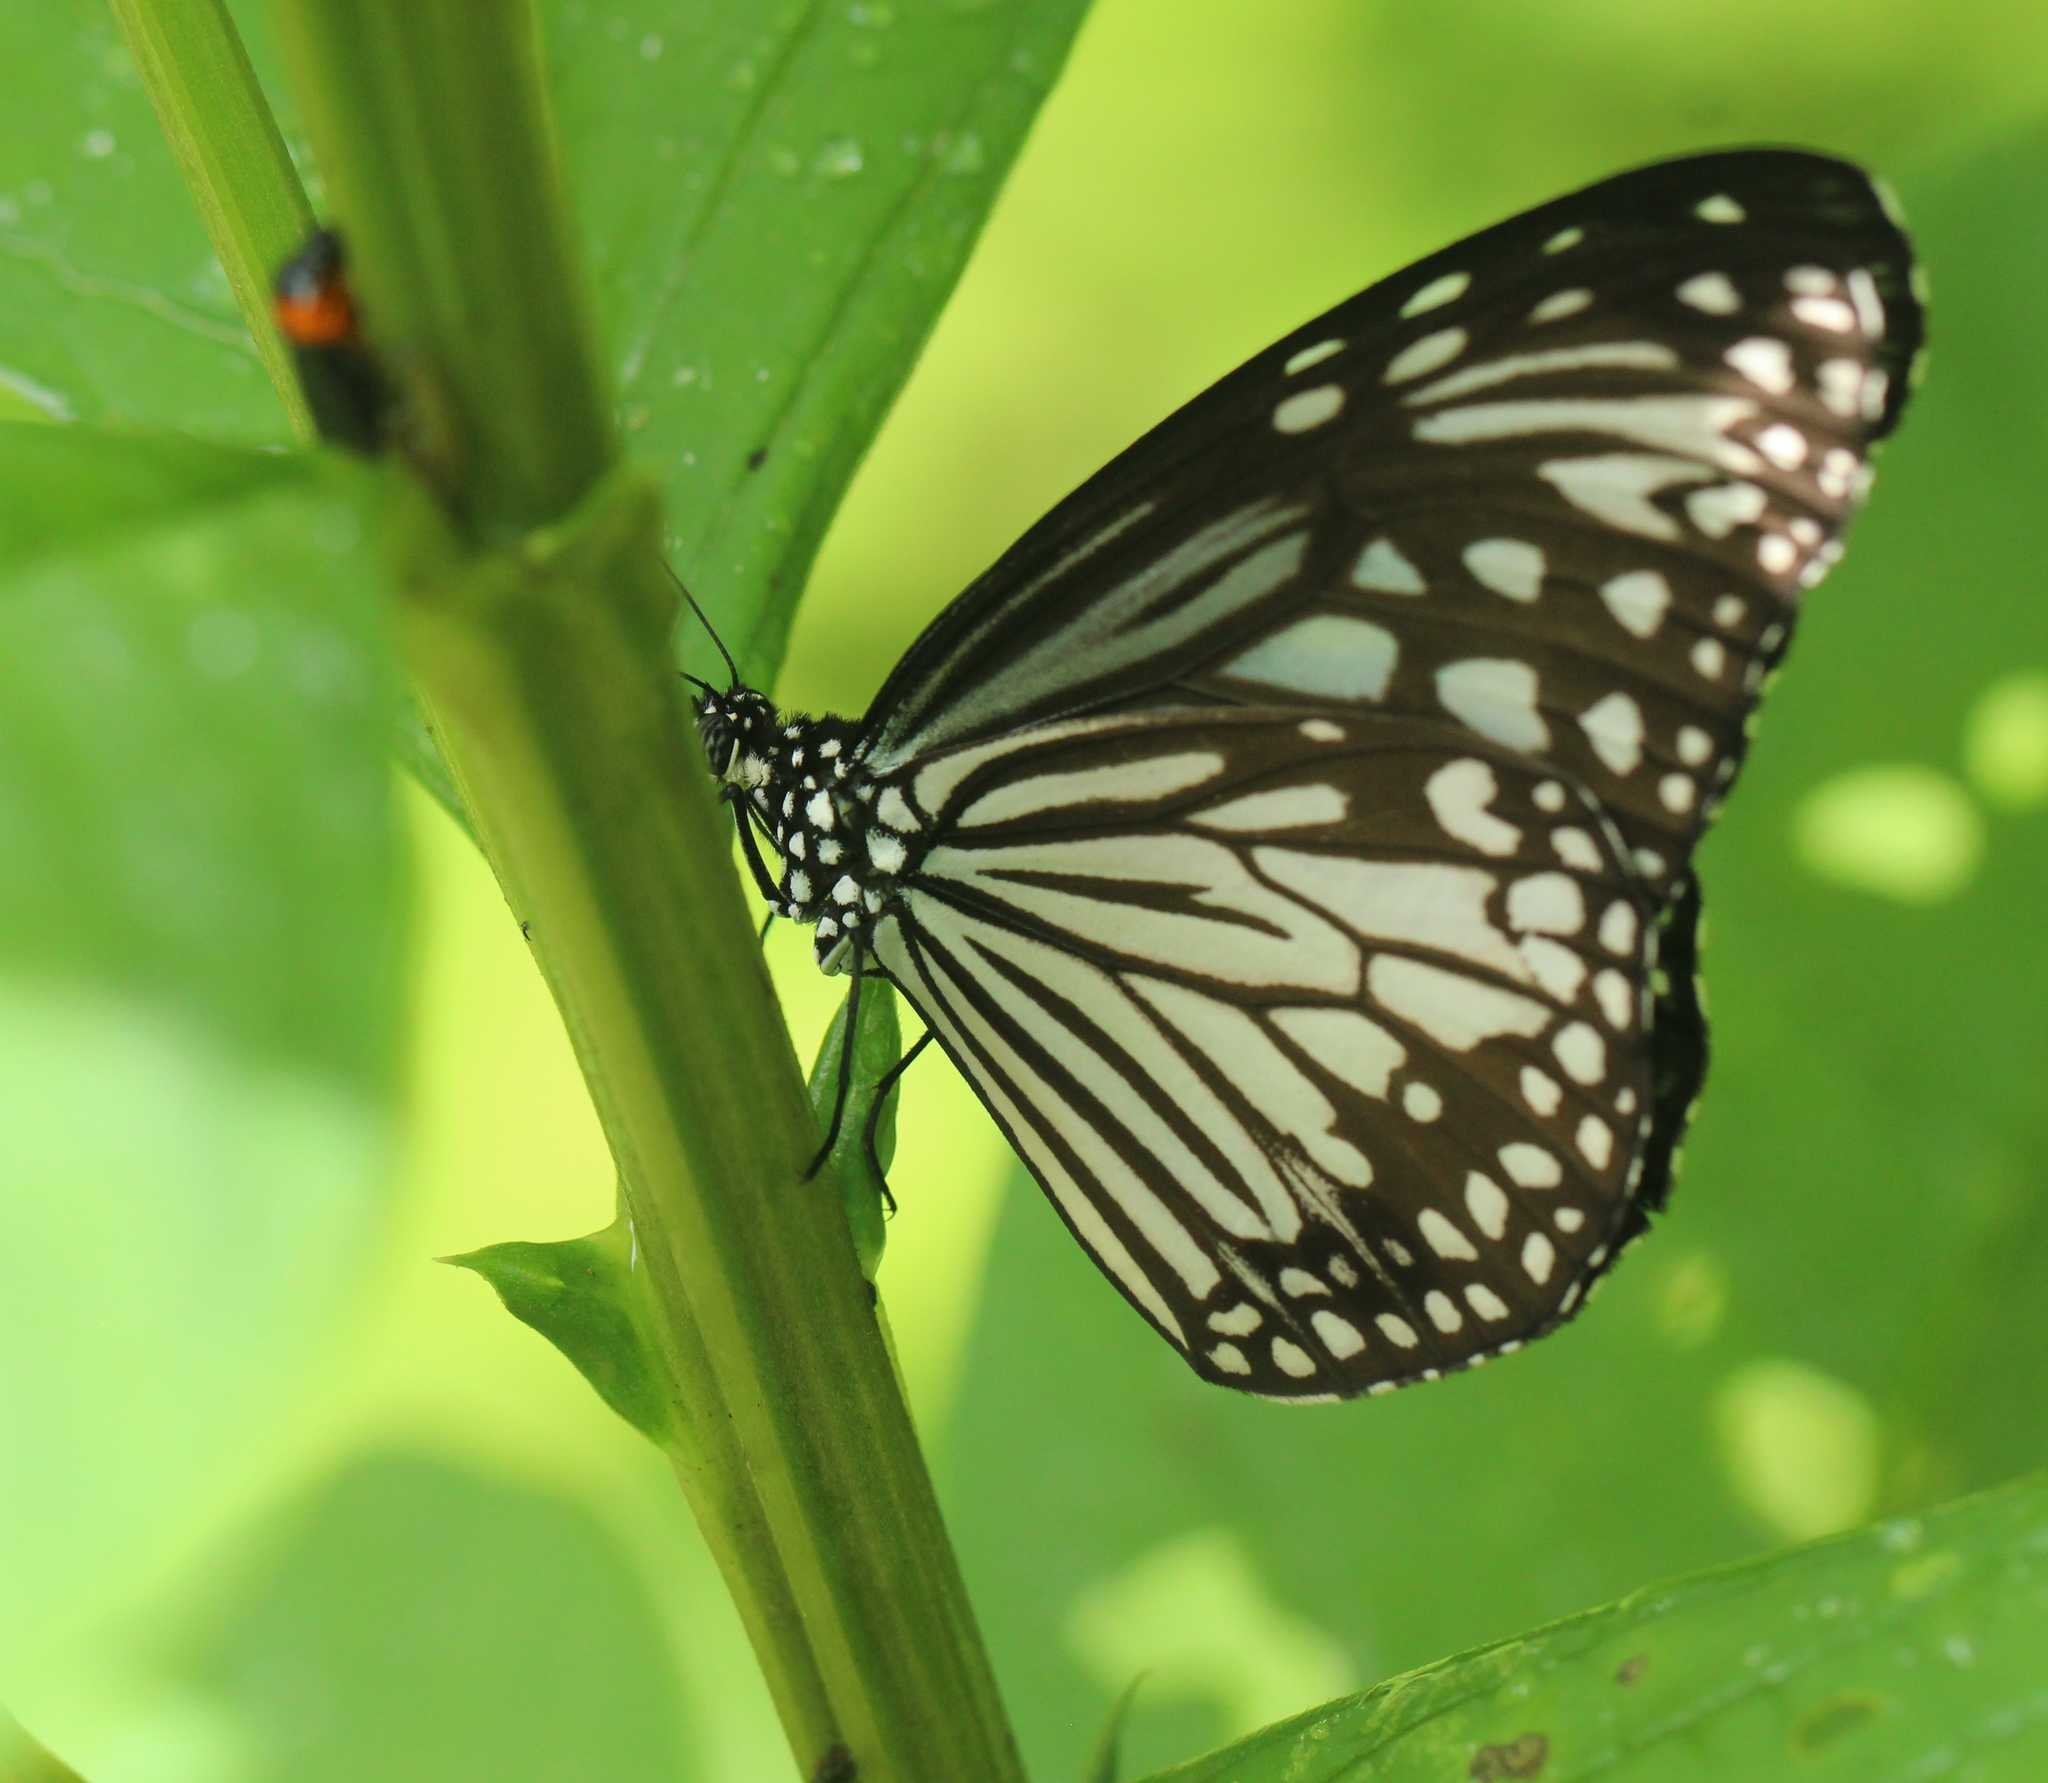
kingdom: Animalia
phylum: Arthropoda
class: Insecta
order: Lepidoptera
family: Nymphalidae
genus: Parantica
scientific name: Parantica aglea
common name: Glassy tiger
